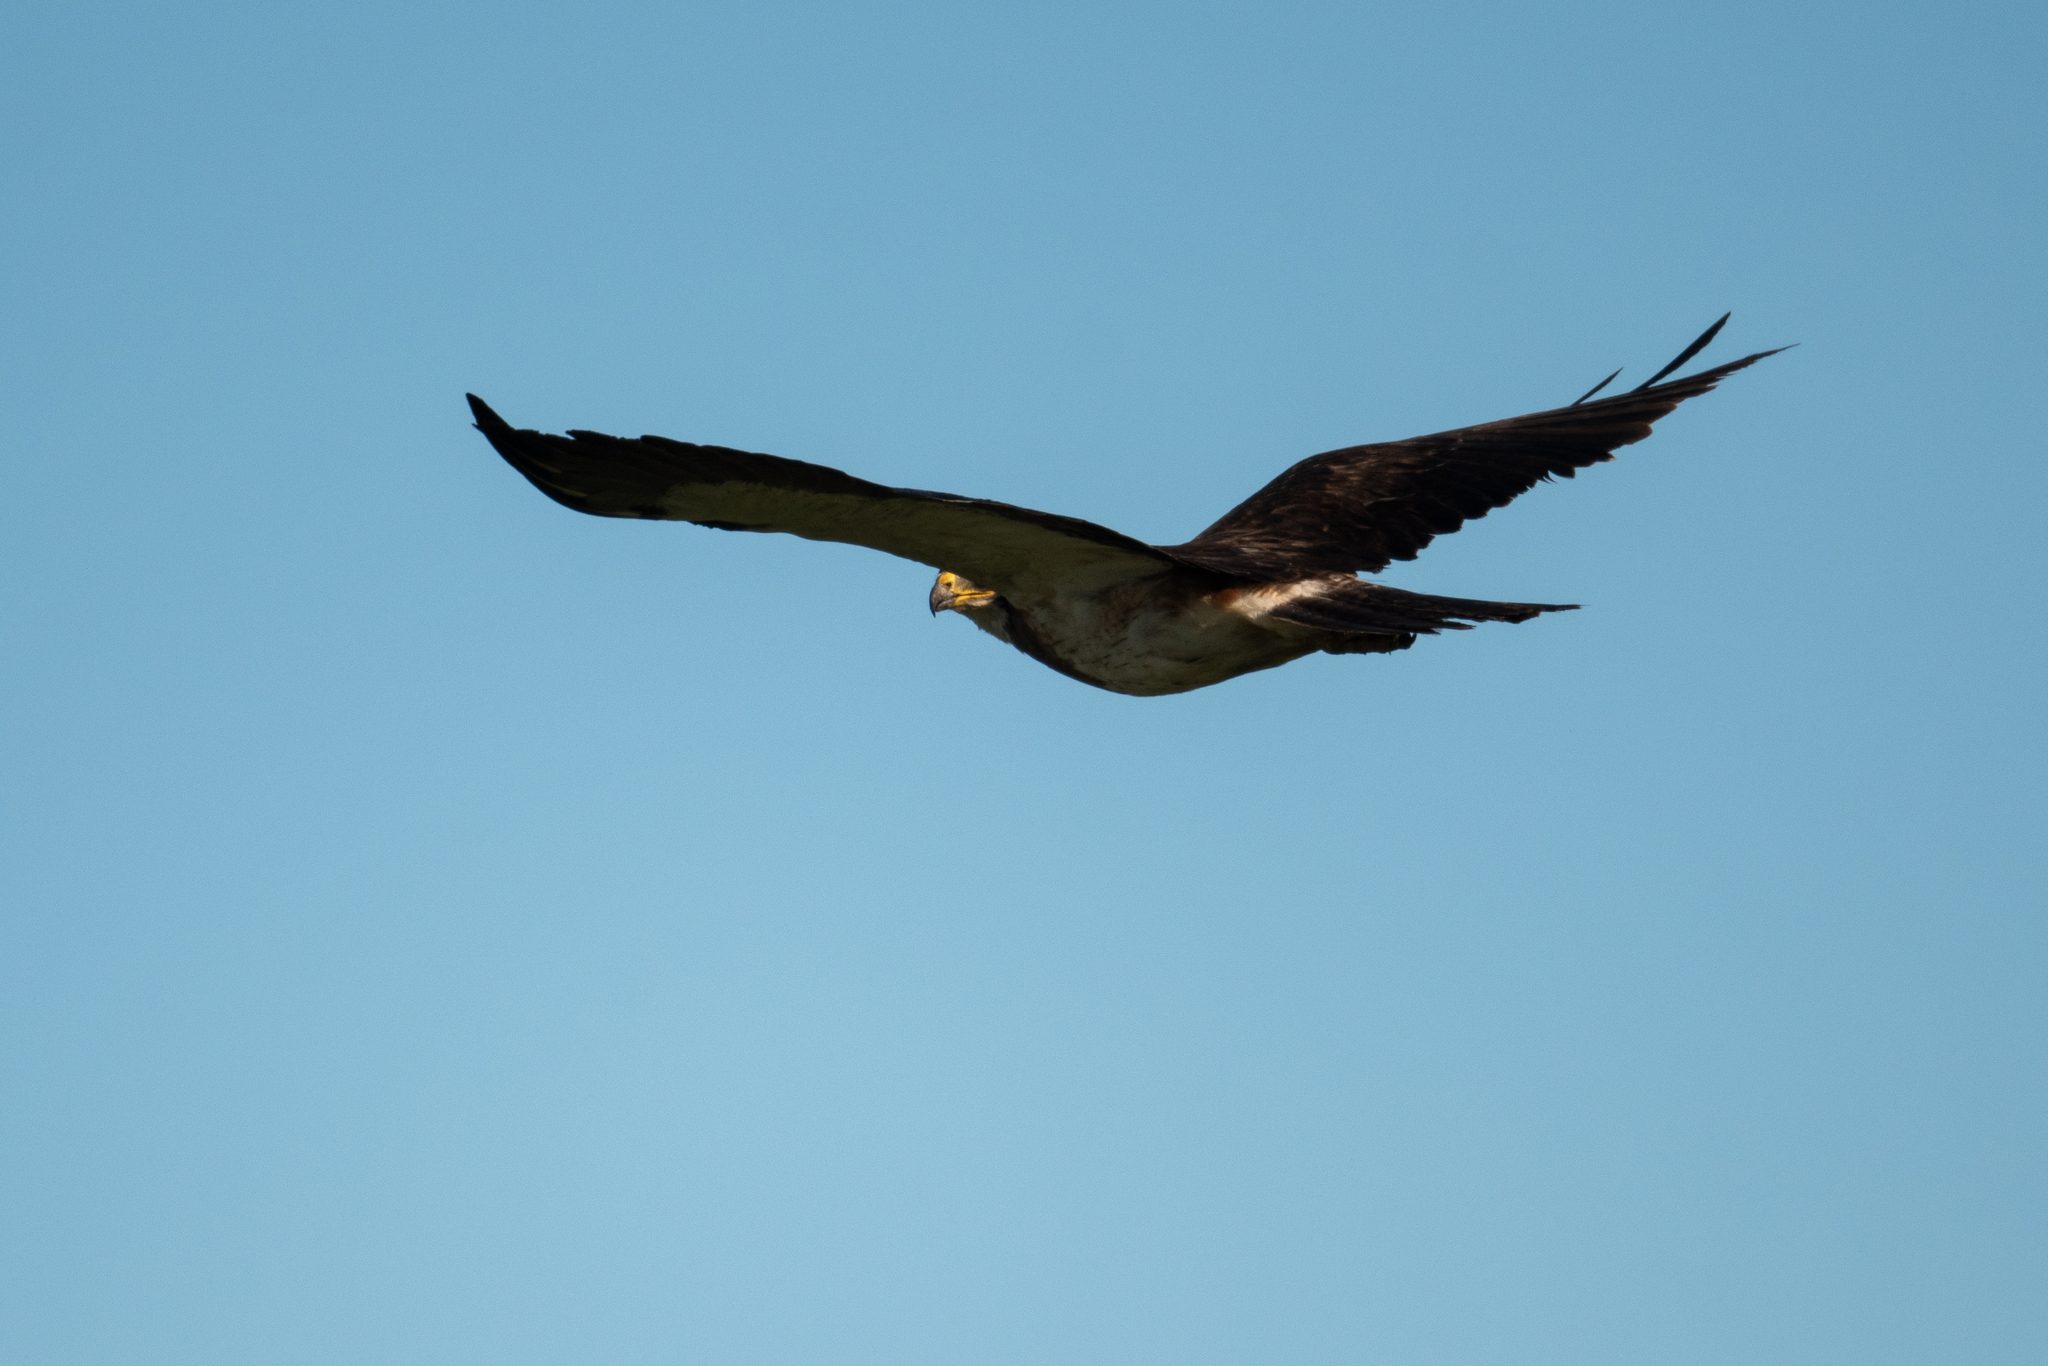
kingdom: Animalia
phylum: Chordata
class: Aves
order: Accipitriformes
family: Accipitridae
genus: Buteo
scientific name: Buteo swainsoni
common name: Swainson's hawk
